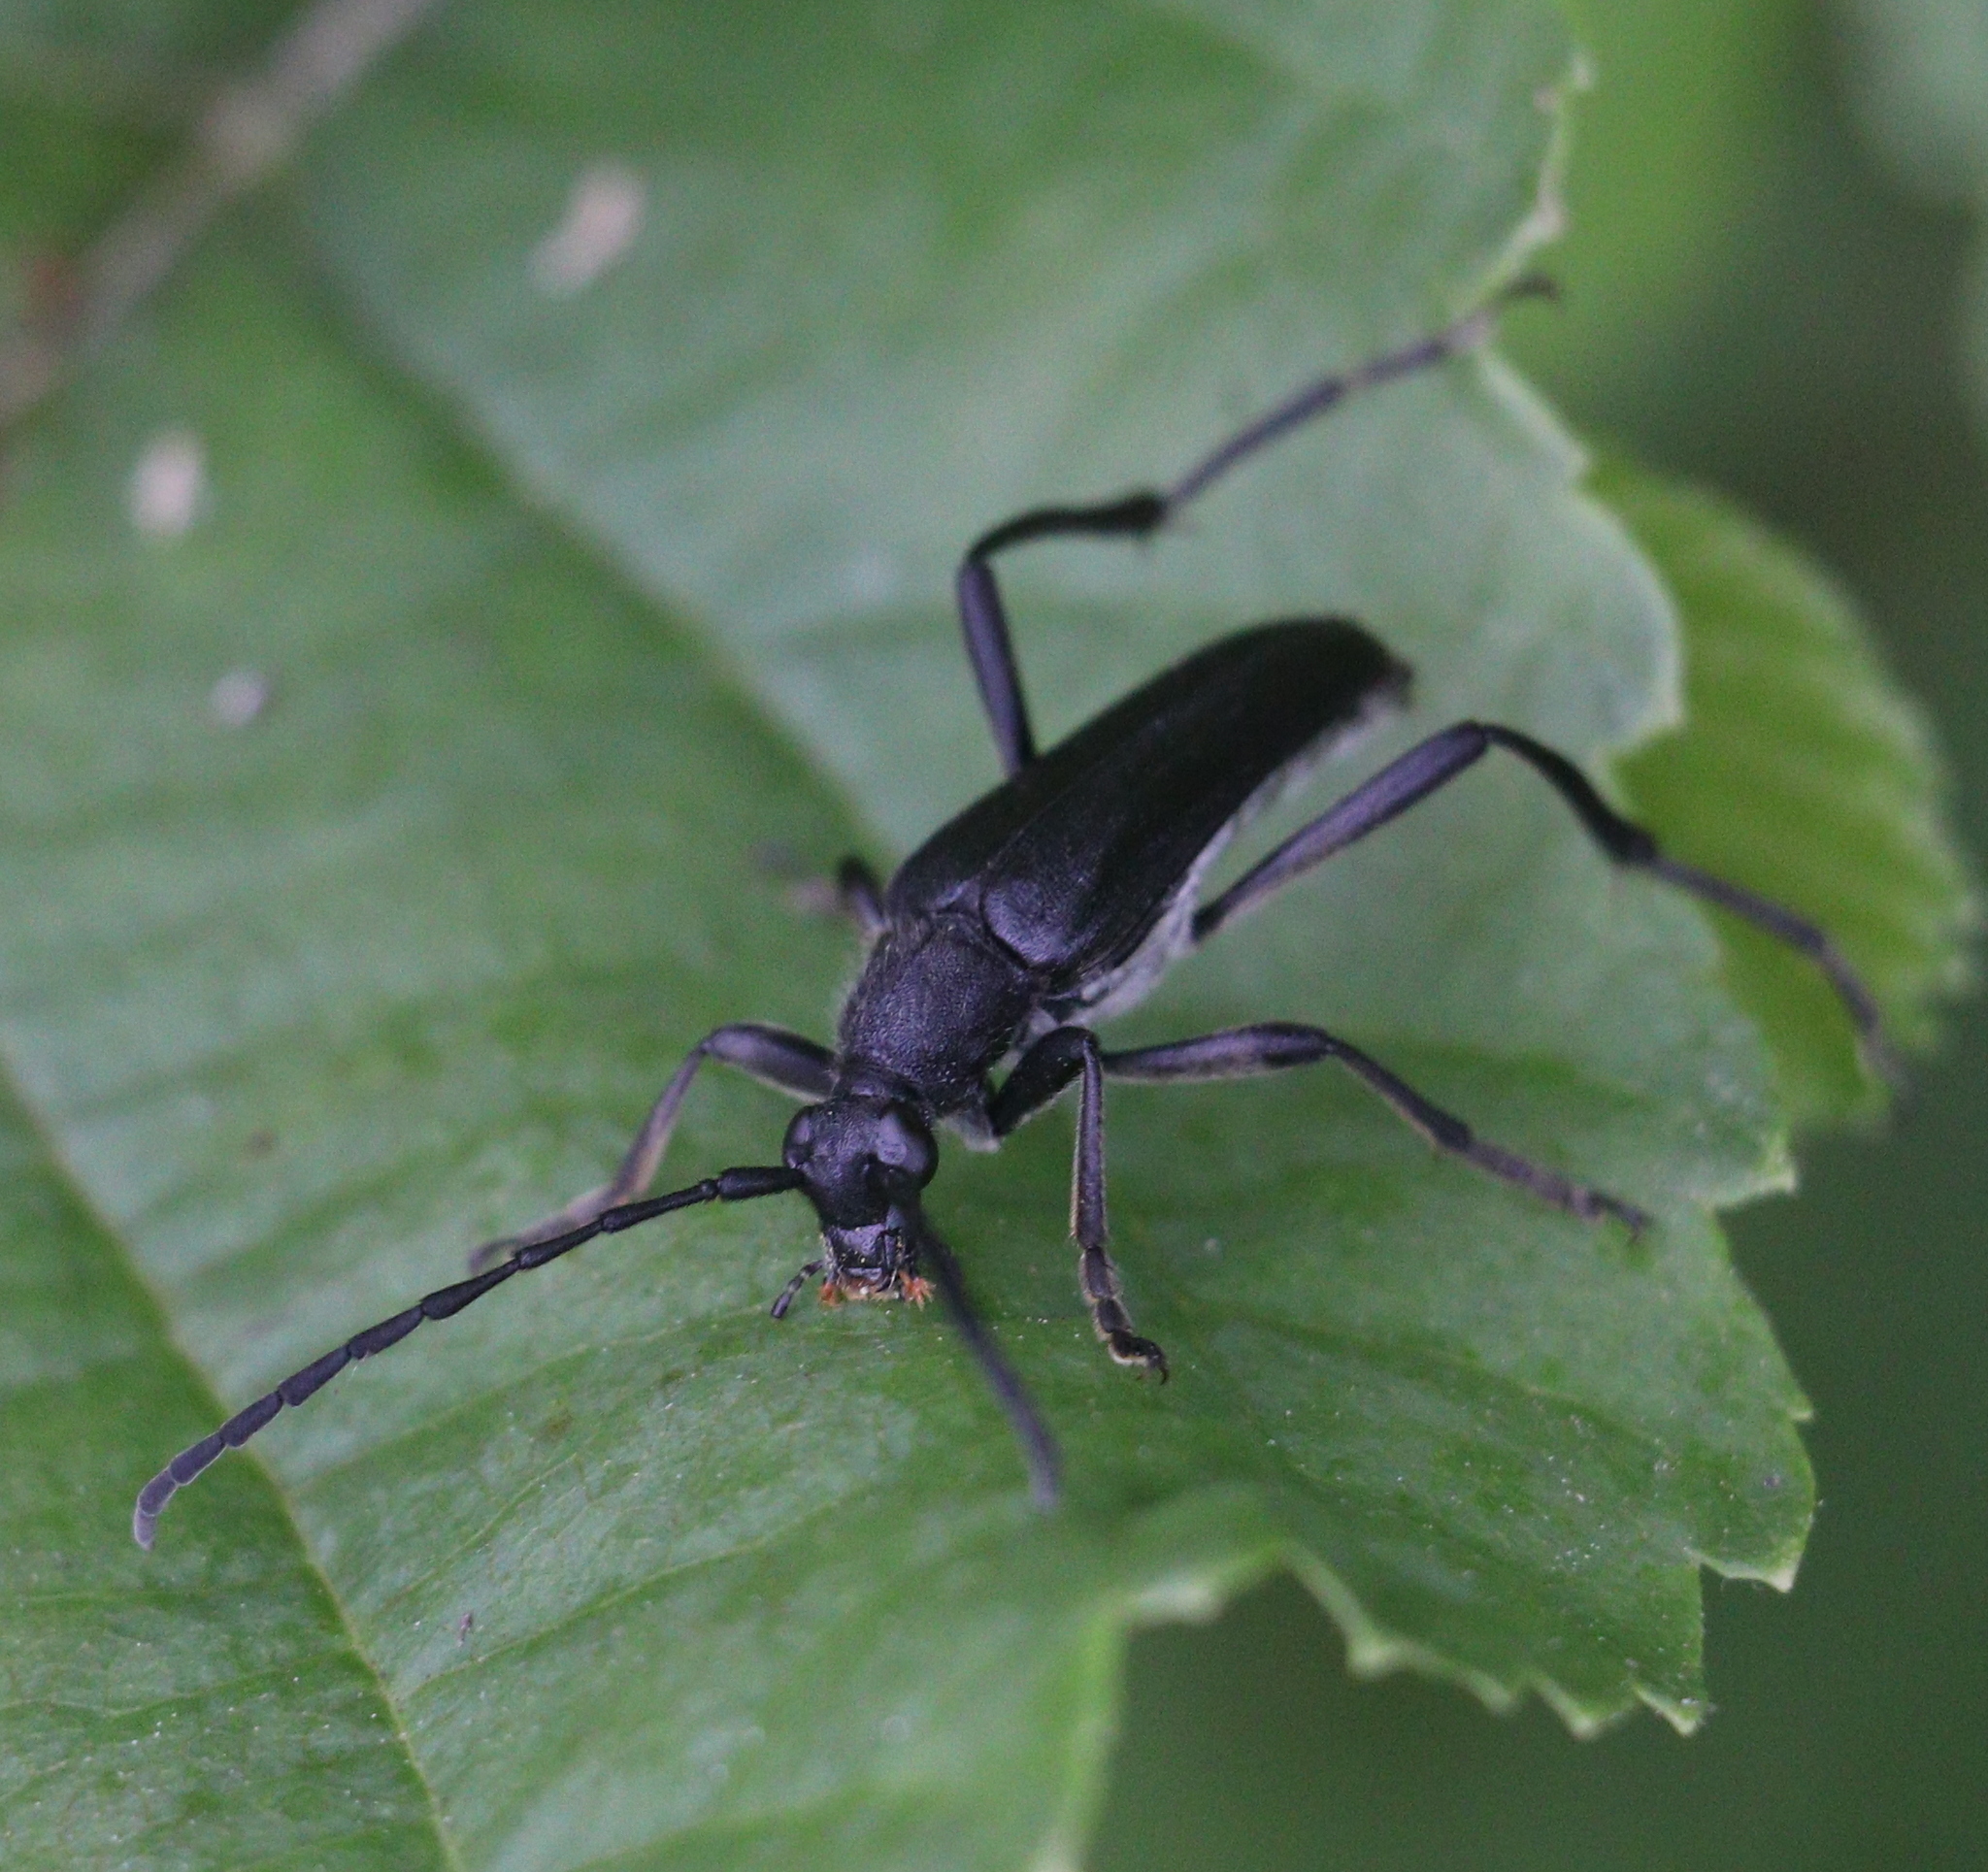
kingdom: Animalia
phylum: Arthropoda
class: Insecta
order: Coleoptera
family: Cerambycidae
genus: Leptura
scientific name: Leptura aethiops
